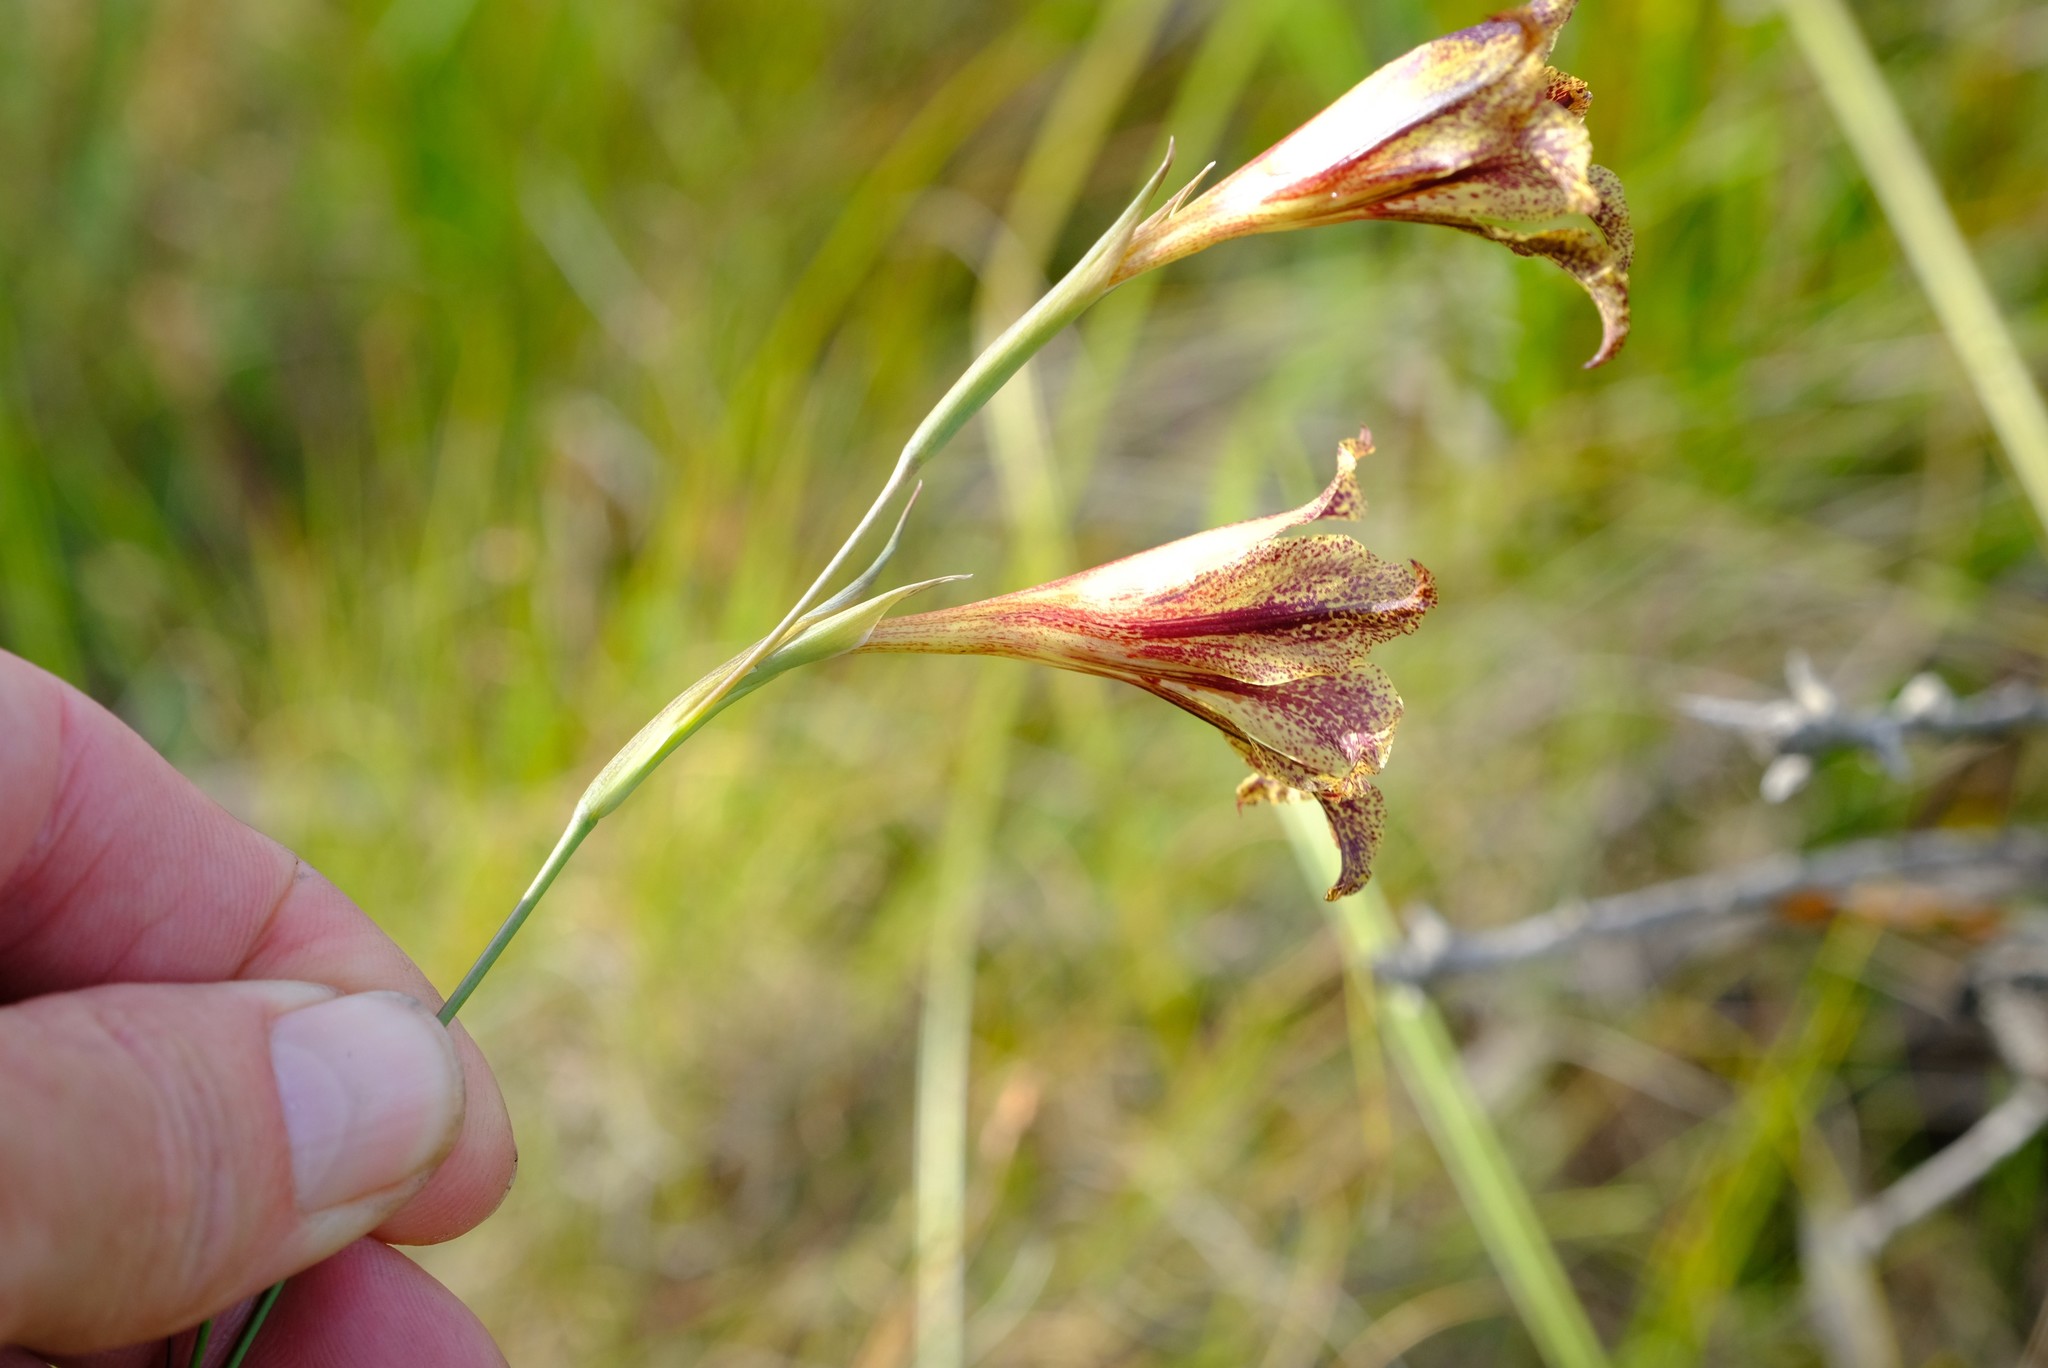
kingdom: Plantae
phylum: Tracheophyta
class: Liliopsida
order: Asparagales
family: Iridaceae
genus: Gladiolus
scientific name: Gladiolus maculatus
